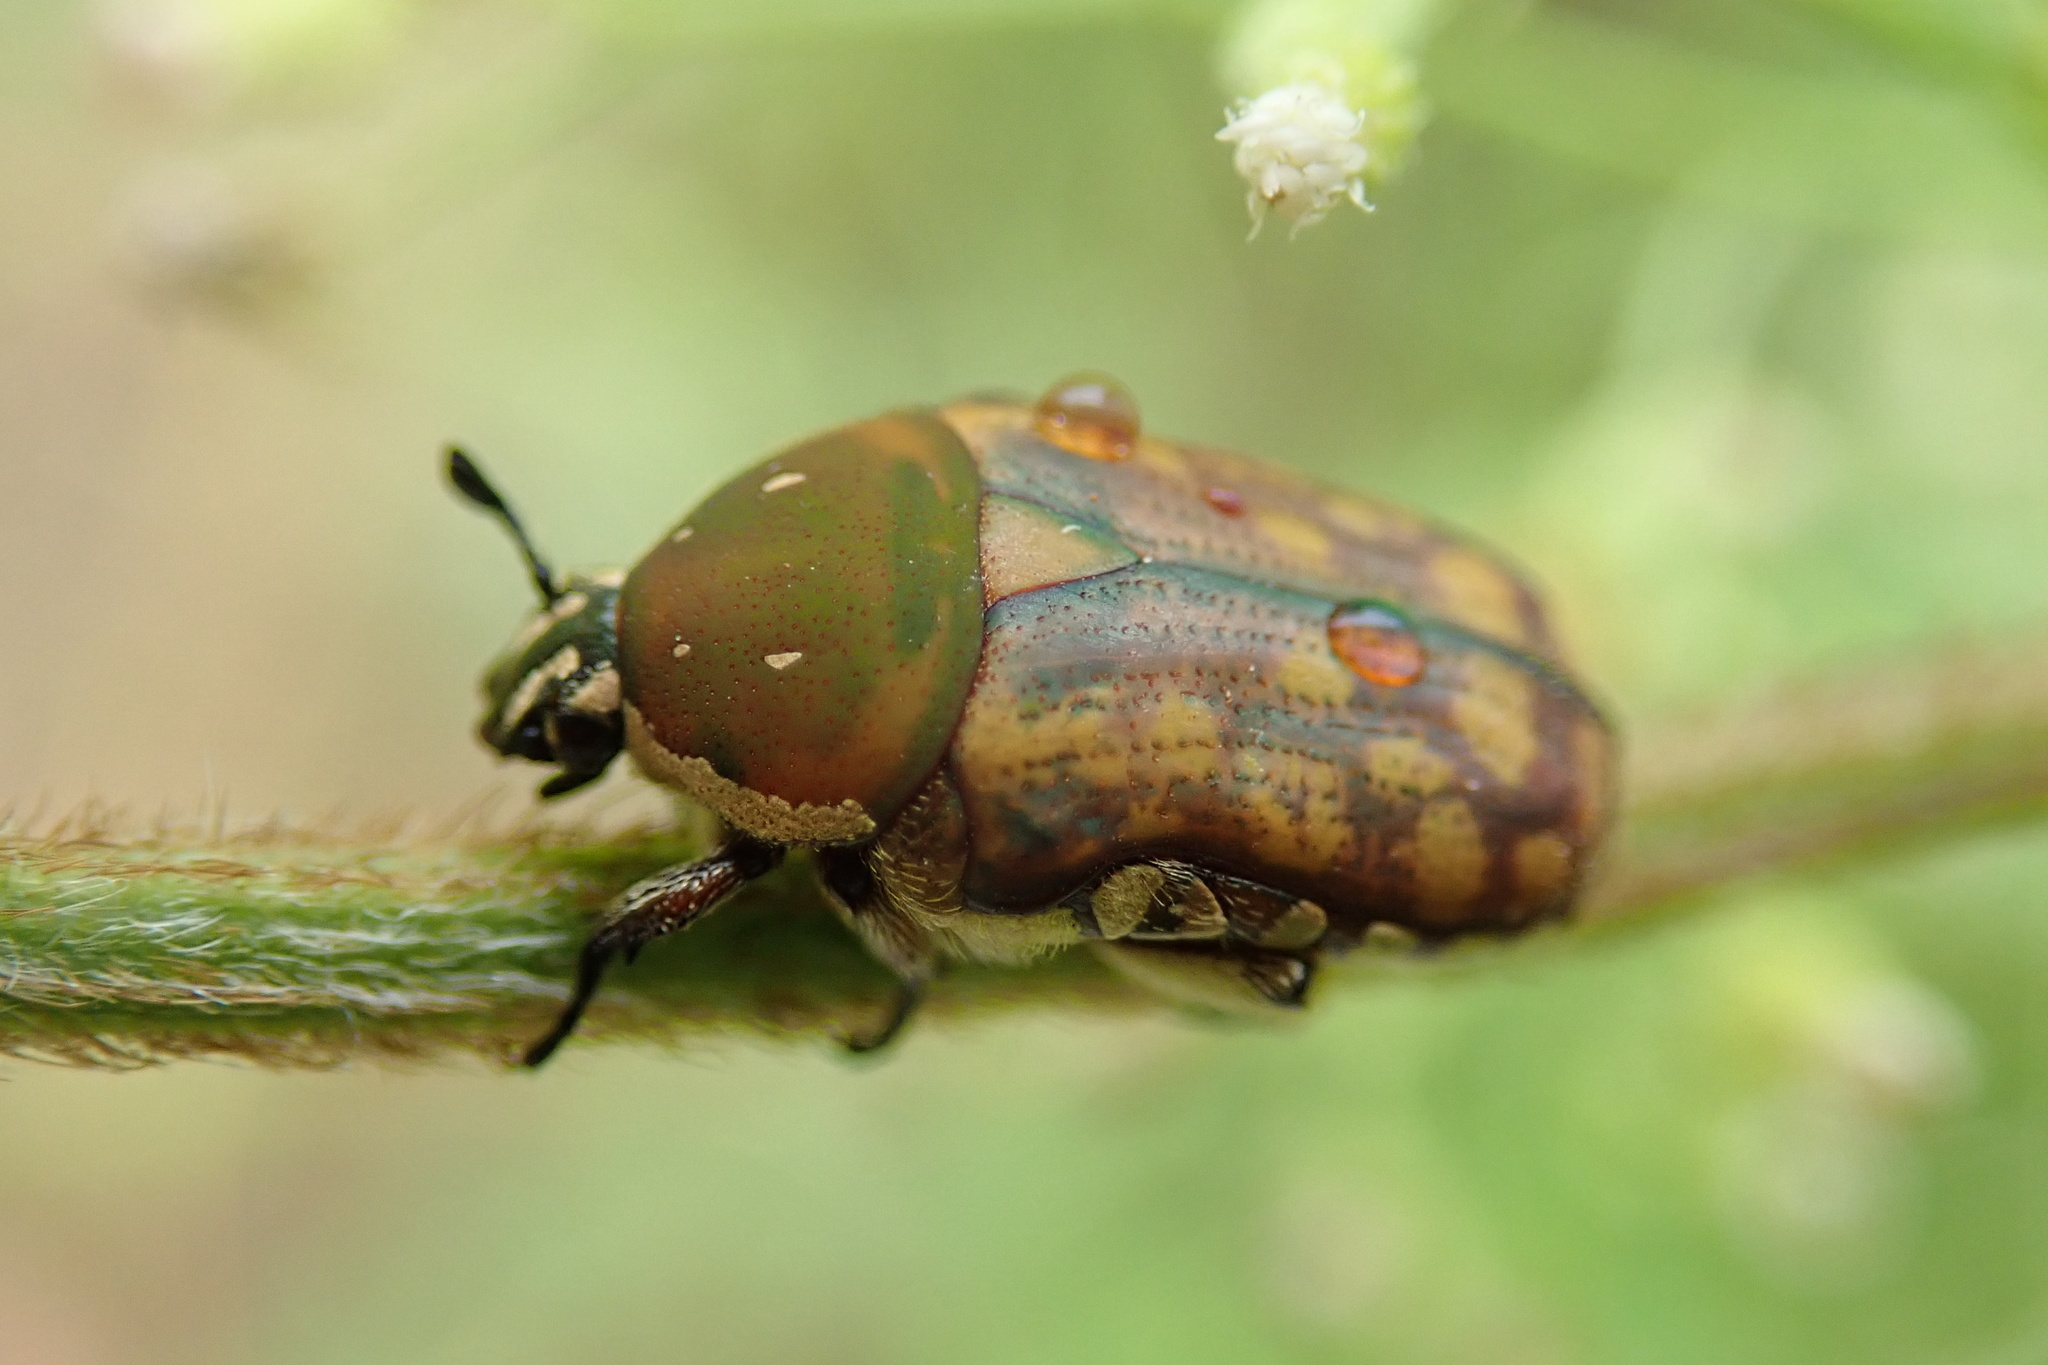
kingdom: Animalia
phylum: Arthropoda
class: Insecta
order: Coleoptera
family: Scarabaeidae
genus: Cosmiophaena
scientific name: Cosmiophaena rubescens
